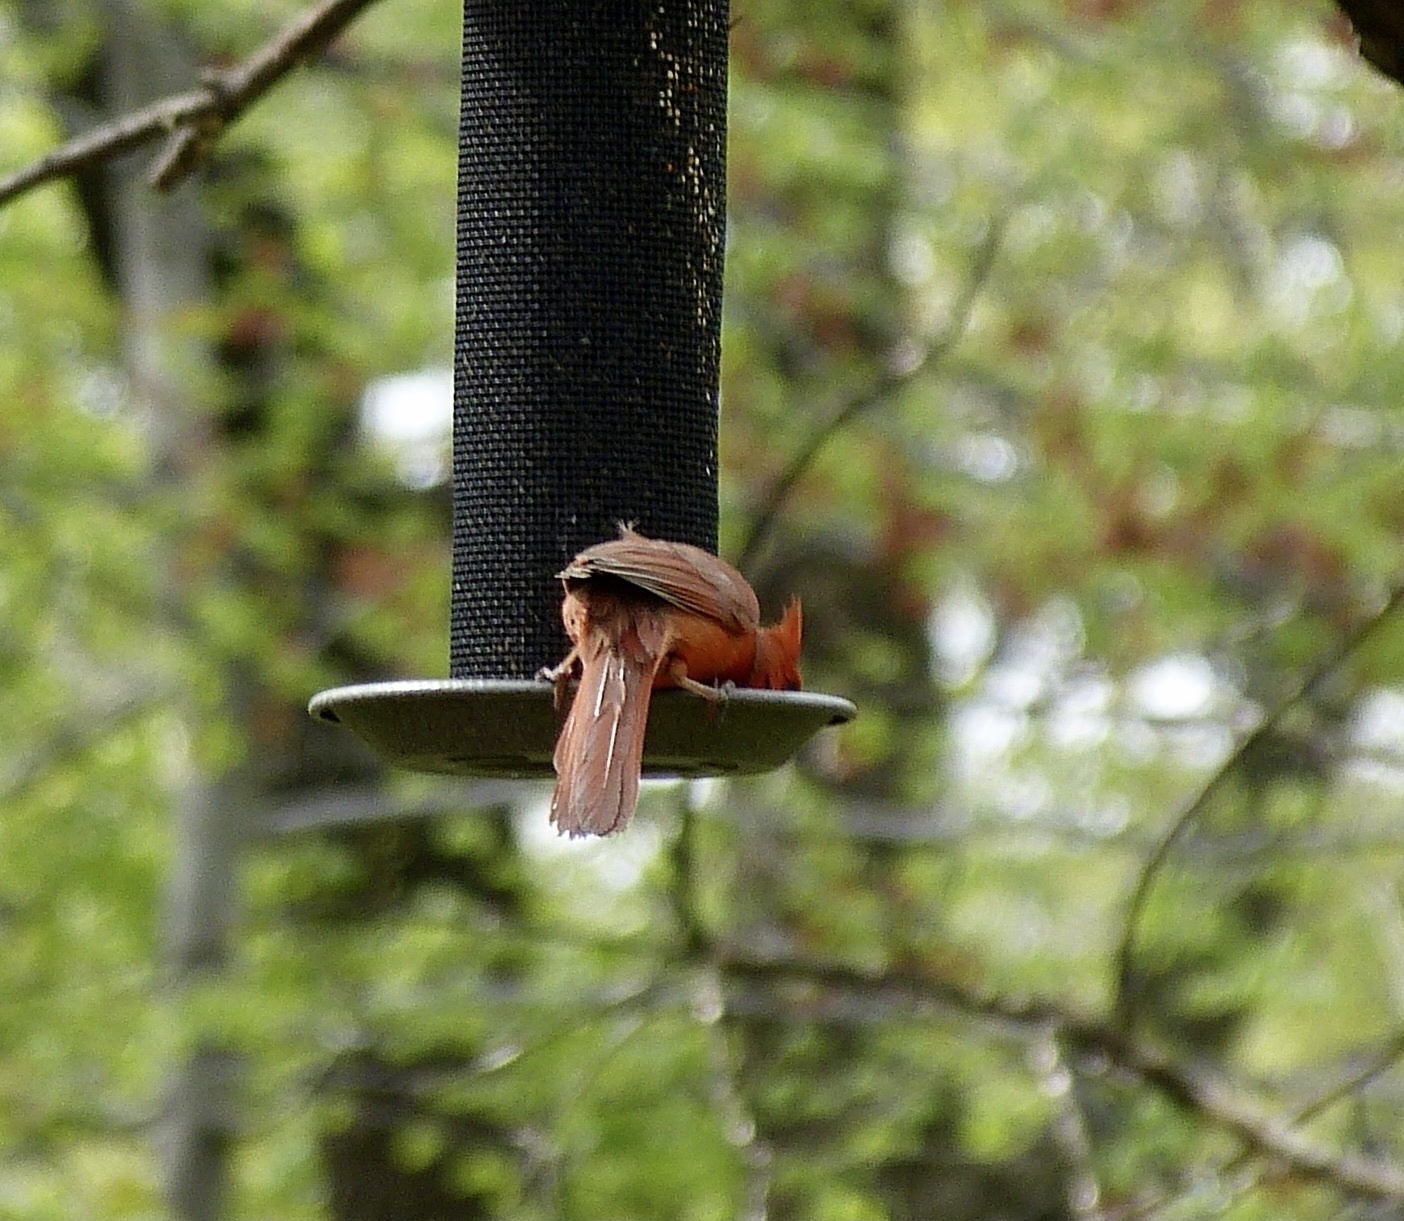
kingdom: Animalia
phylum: Chordata
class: Aves
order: Passeriformes
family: Cardinalidae
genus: Cardinalis
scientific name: Cardinalis cardinalis
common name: Northern cardinal
